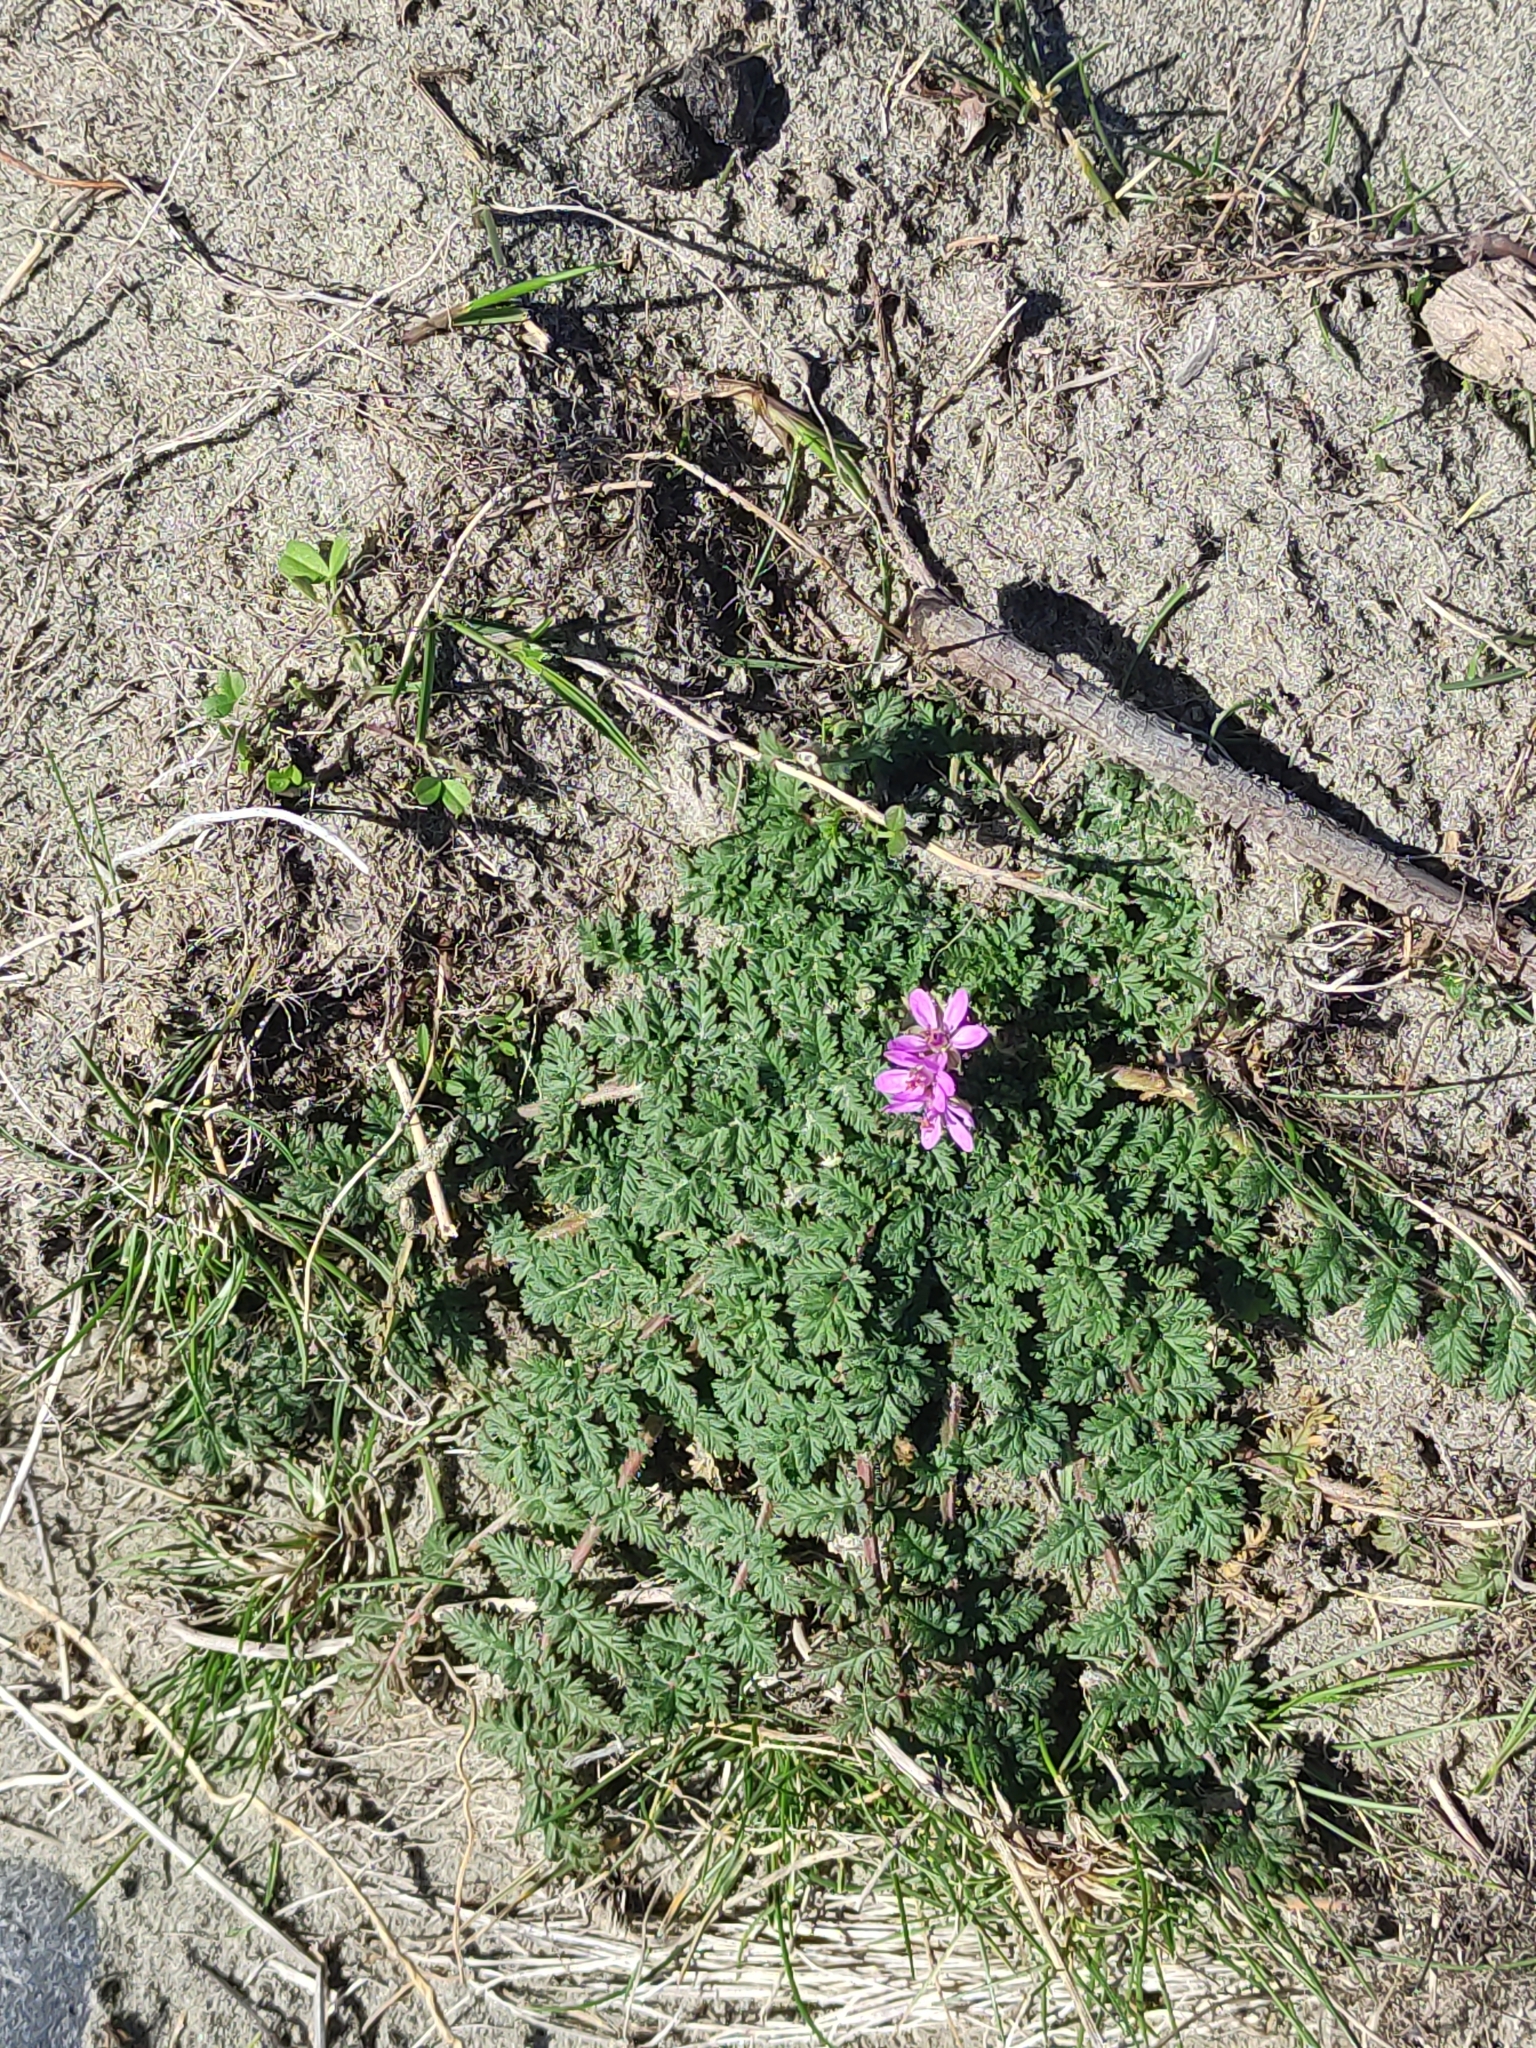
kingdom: Plantae
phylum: Tracheophyta
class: Magnoliopsida
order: Geraniales
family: Geraniaceae
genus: Erodium
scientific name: Erodium cicutarium
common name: Common stork's-bill
